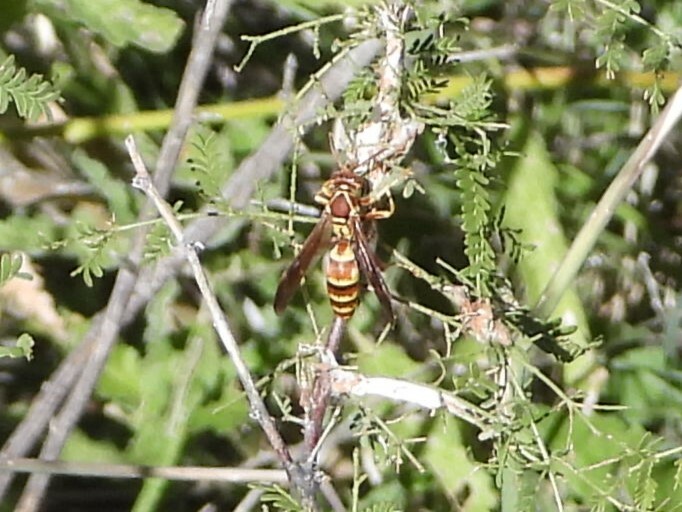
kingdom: Animalia
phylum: Arthropoda
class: Insecta
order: Hymenoptera
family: Eumenidae
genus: Polistes
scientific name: Polistes dorsalis
